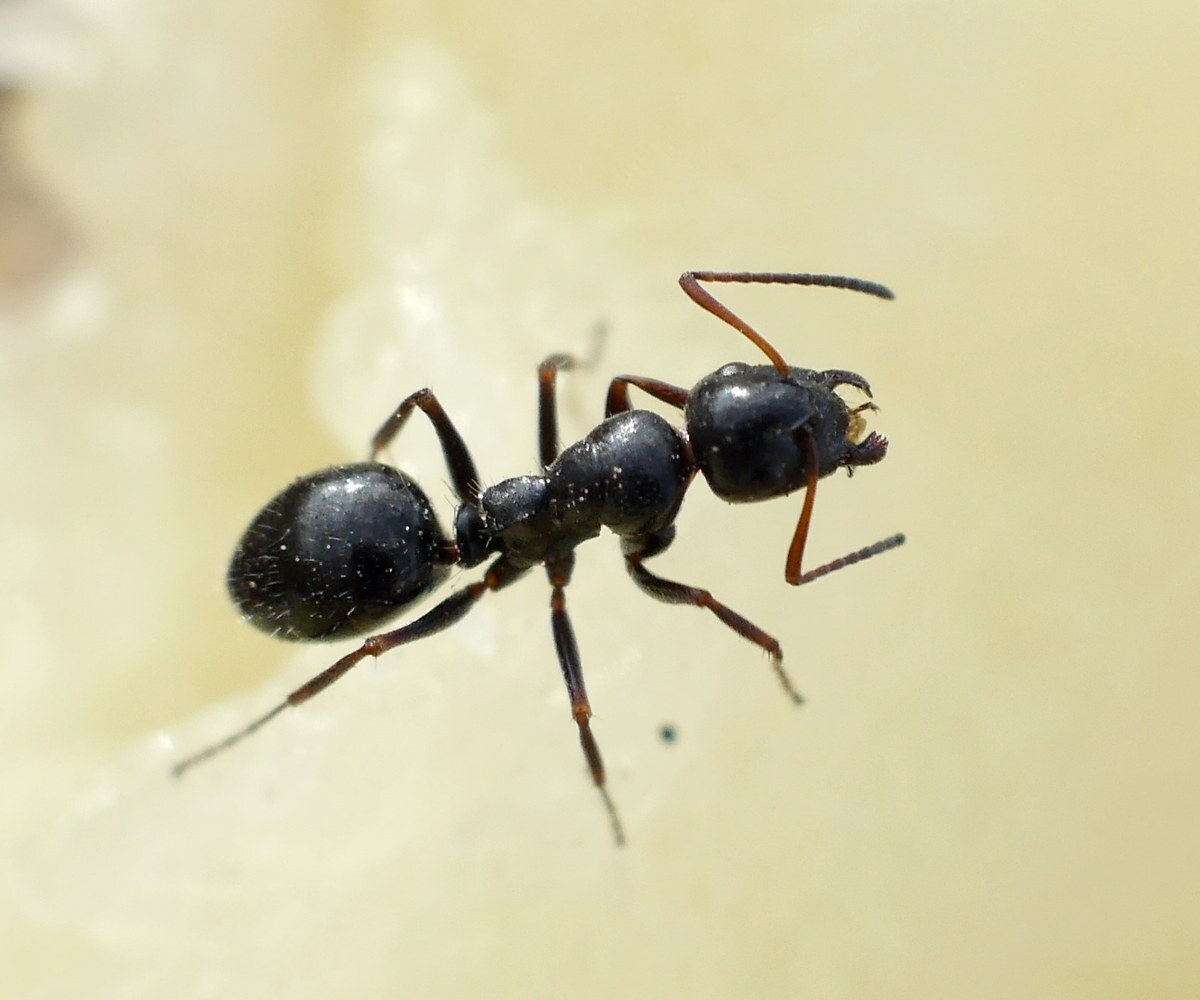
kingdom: Animalia
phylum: Arthropoda
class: Insecta
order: Hymenoptera
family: Formicidae
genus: Camponotus
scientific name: Camponotus piceus
